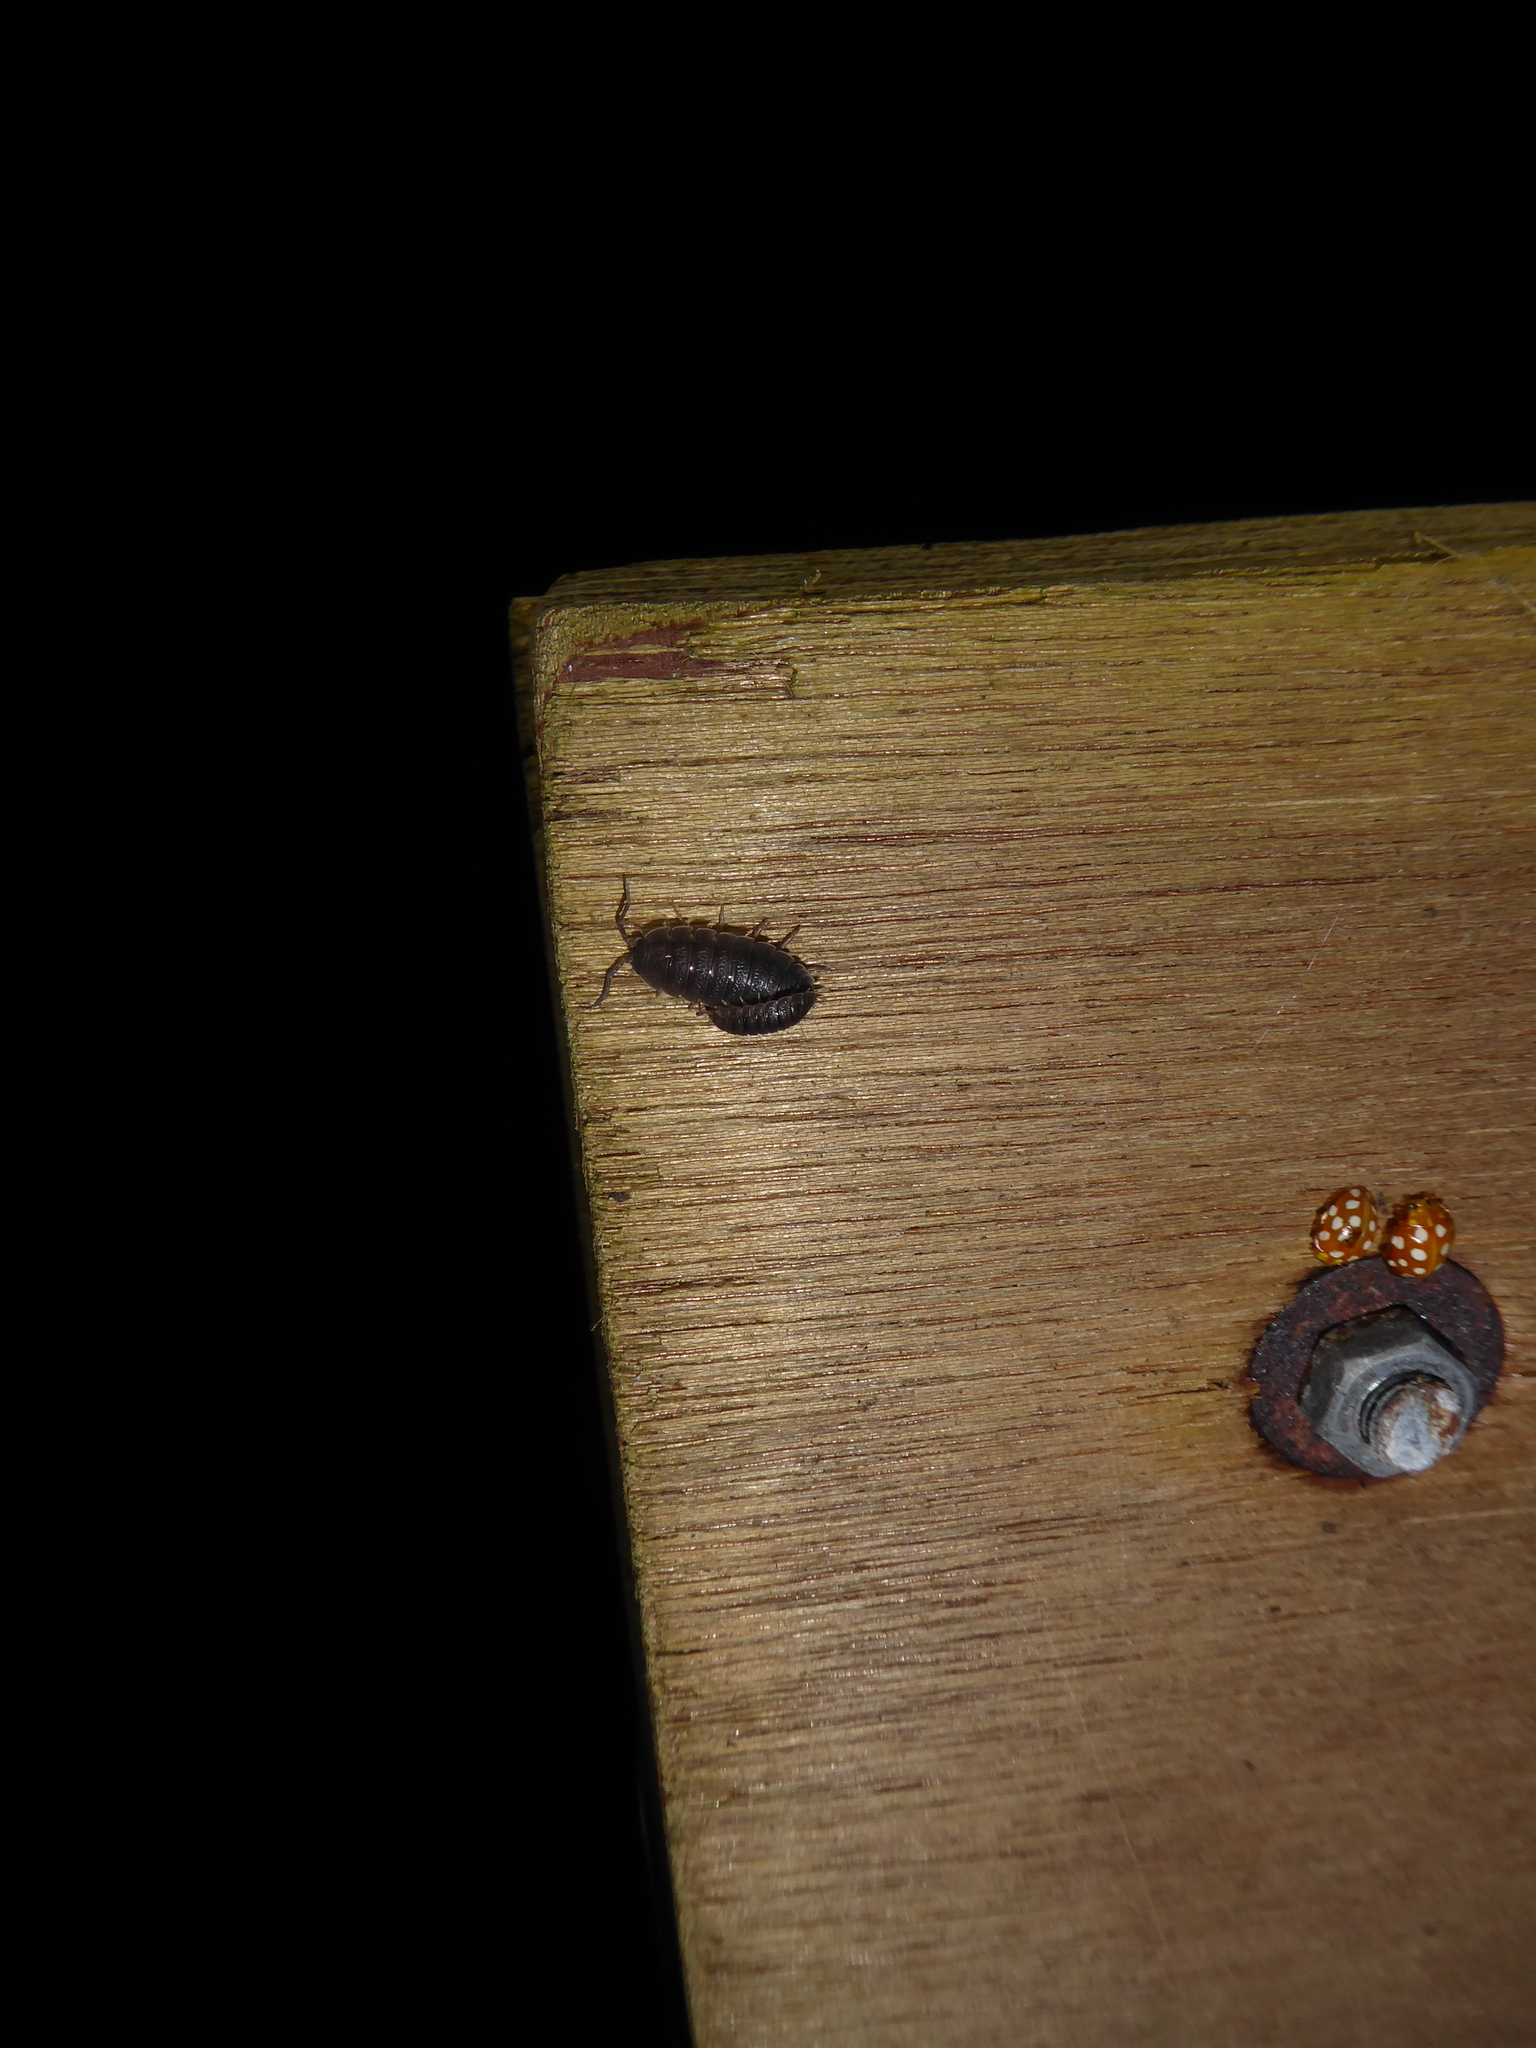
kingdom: Animalia
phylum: Arthropoda
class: Malacostraca
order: Isopoda
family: Porcellionidae
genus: Porcellio
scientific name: Porcellio scaber
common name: Common rough woodlouse
